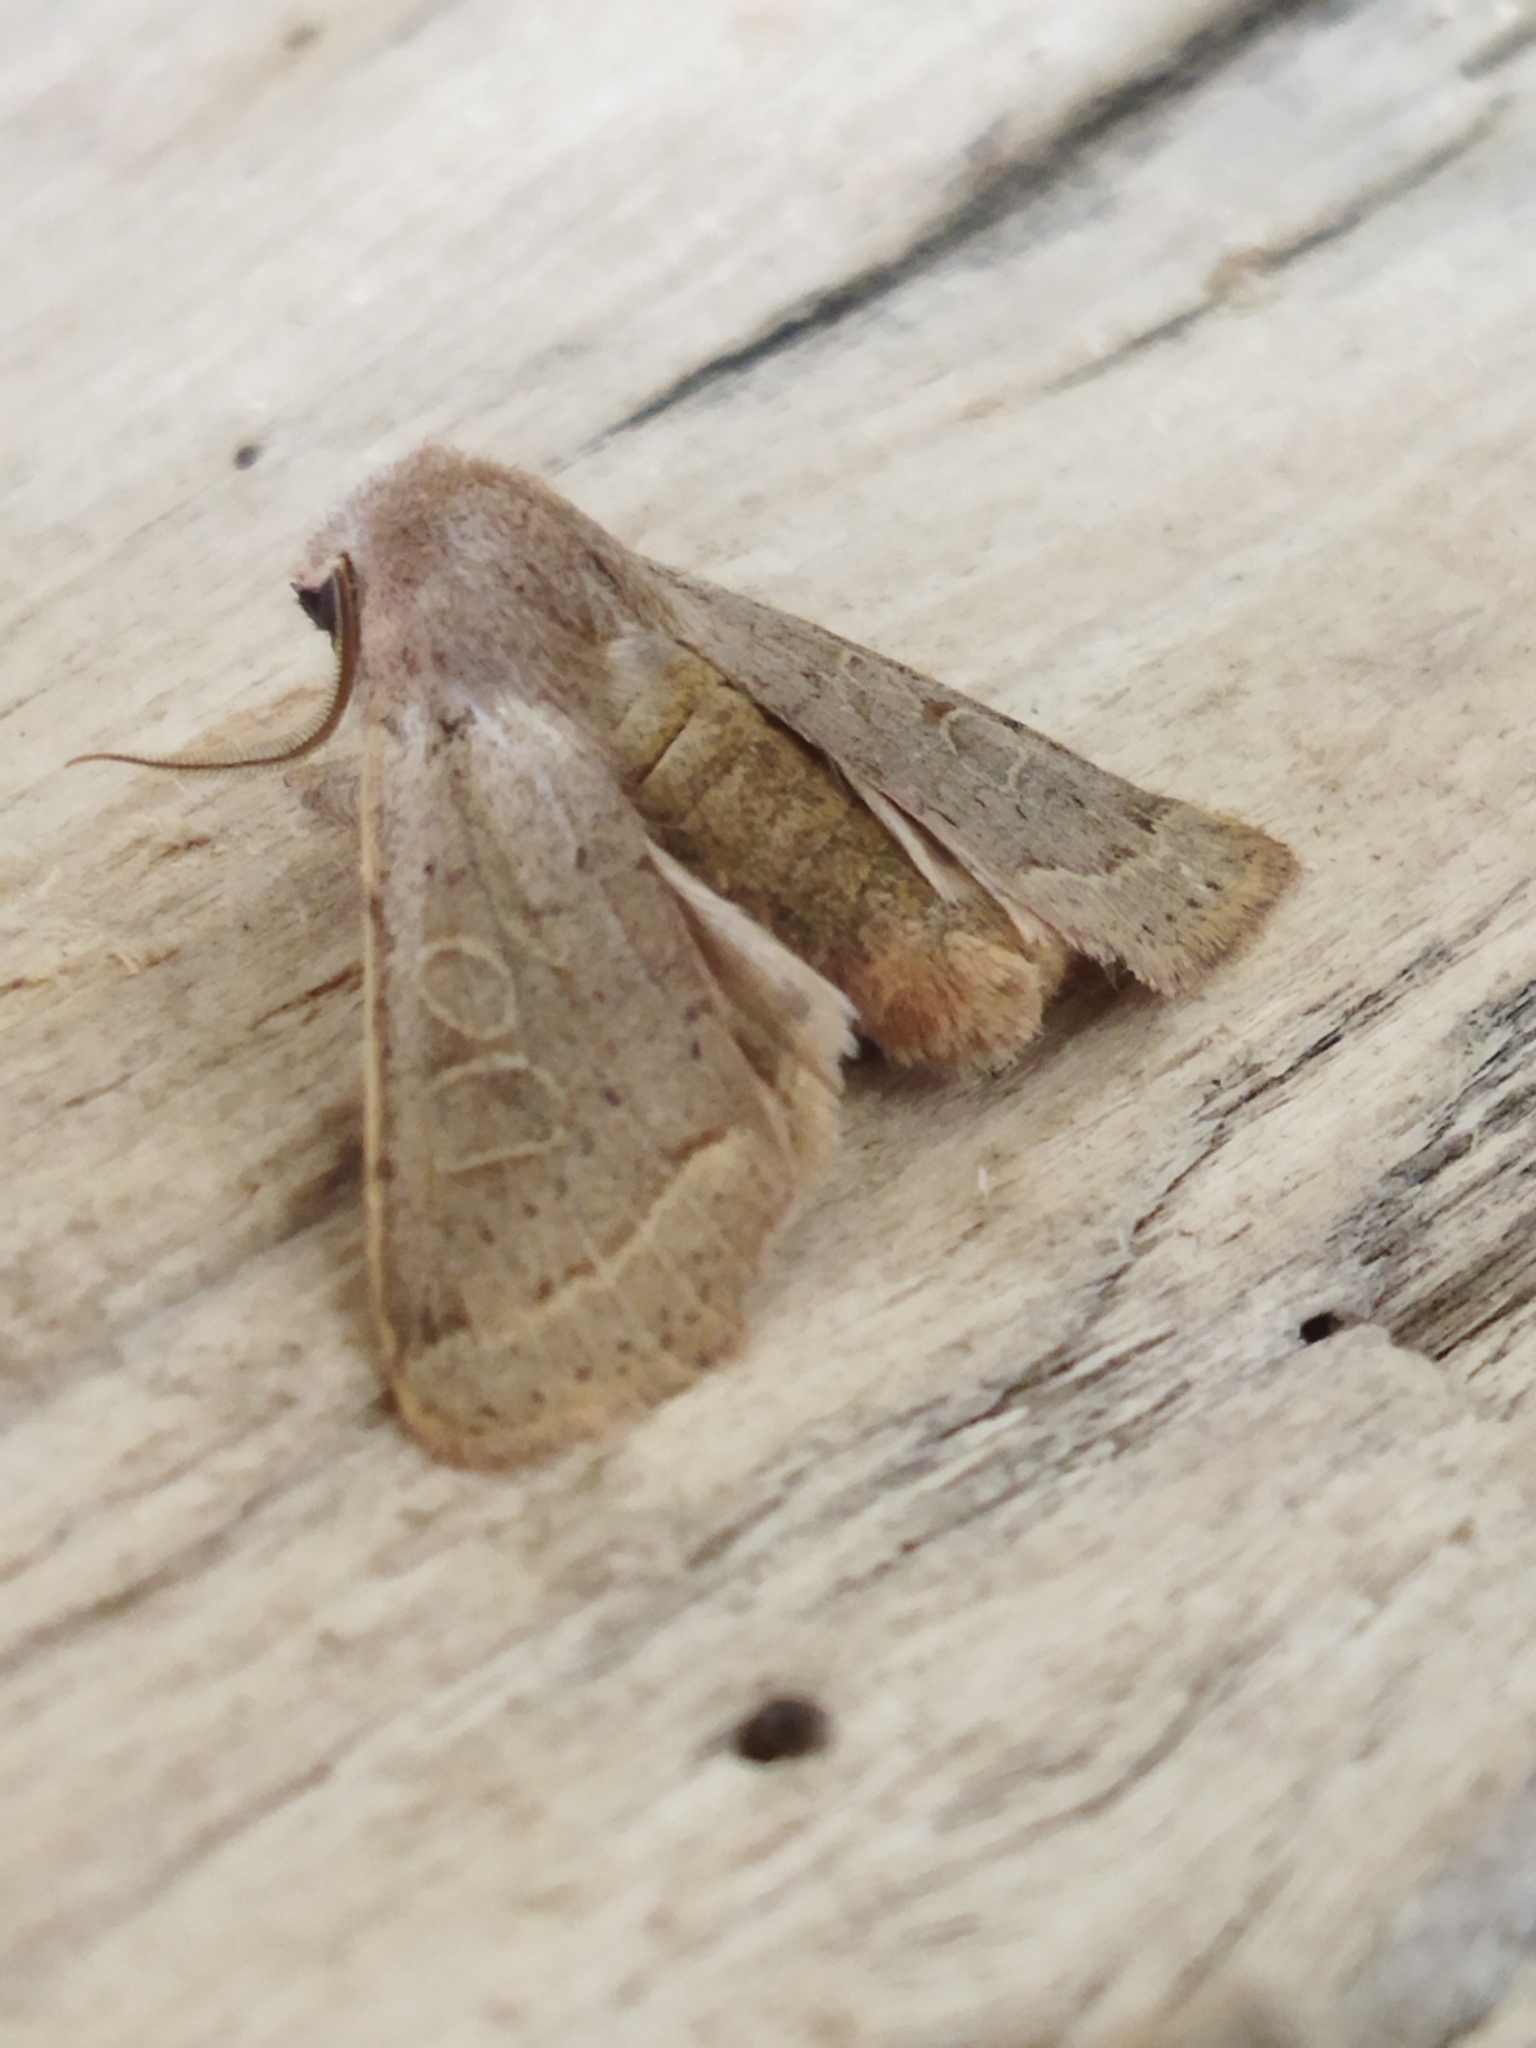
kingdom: Animalia
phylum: Arthropoda
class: Insecta
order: Lepidoptera
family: Noctuidae
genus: Orthosia
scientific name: Orthosia cerasi
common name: Common quaker
